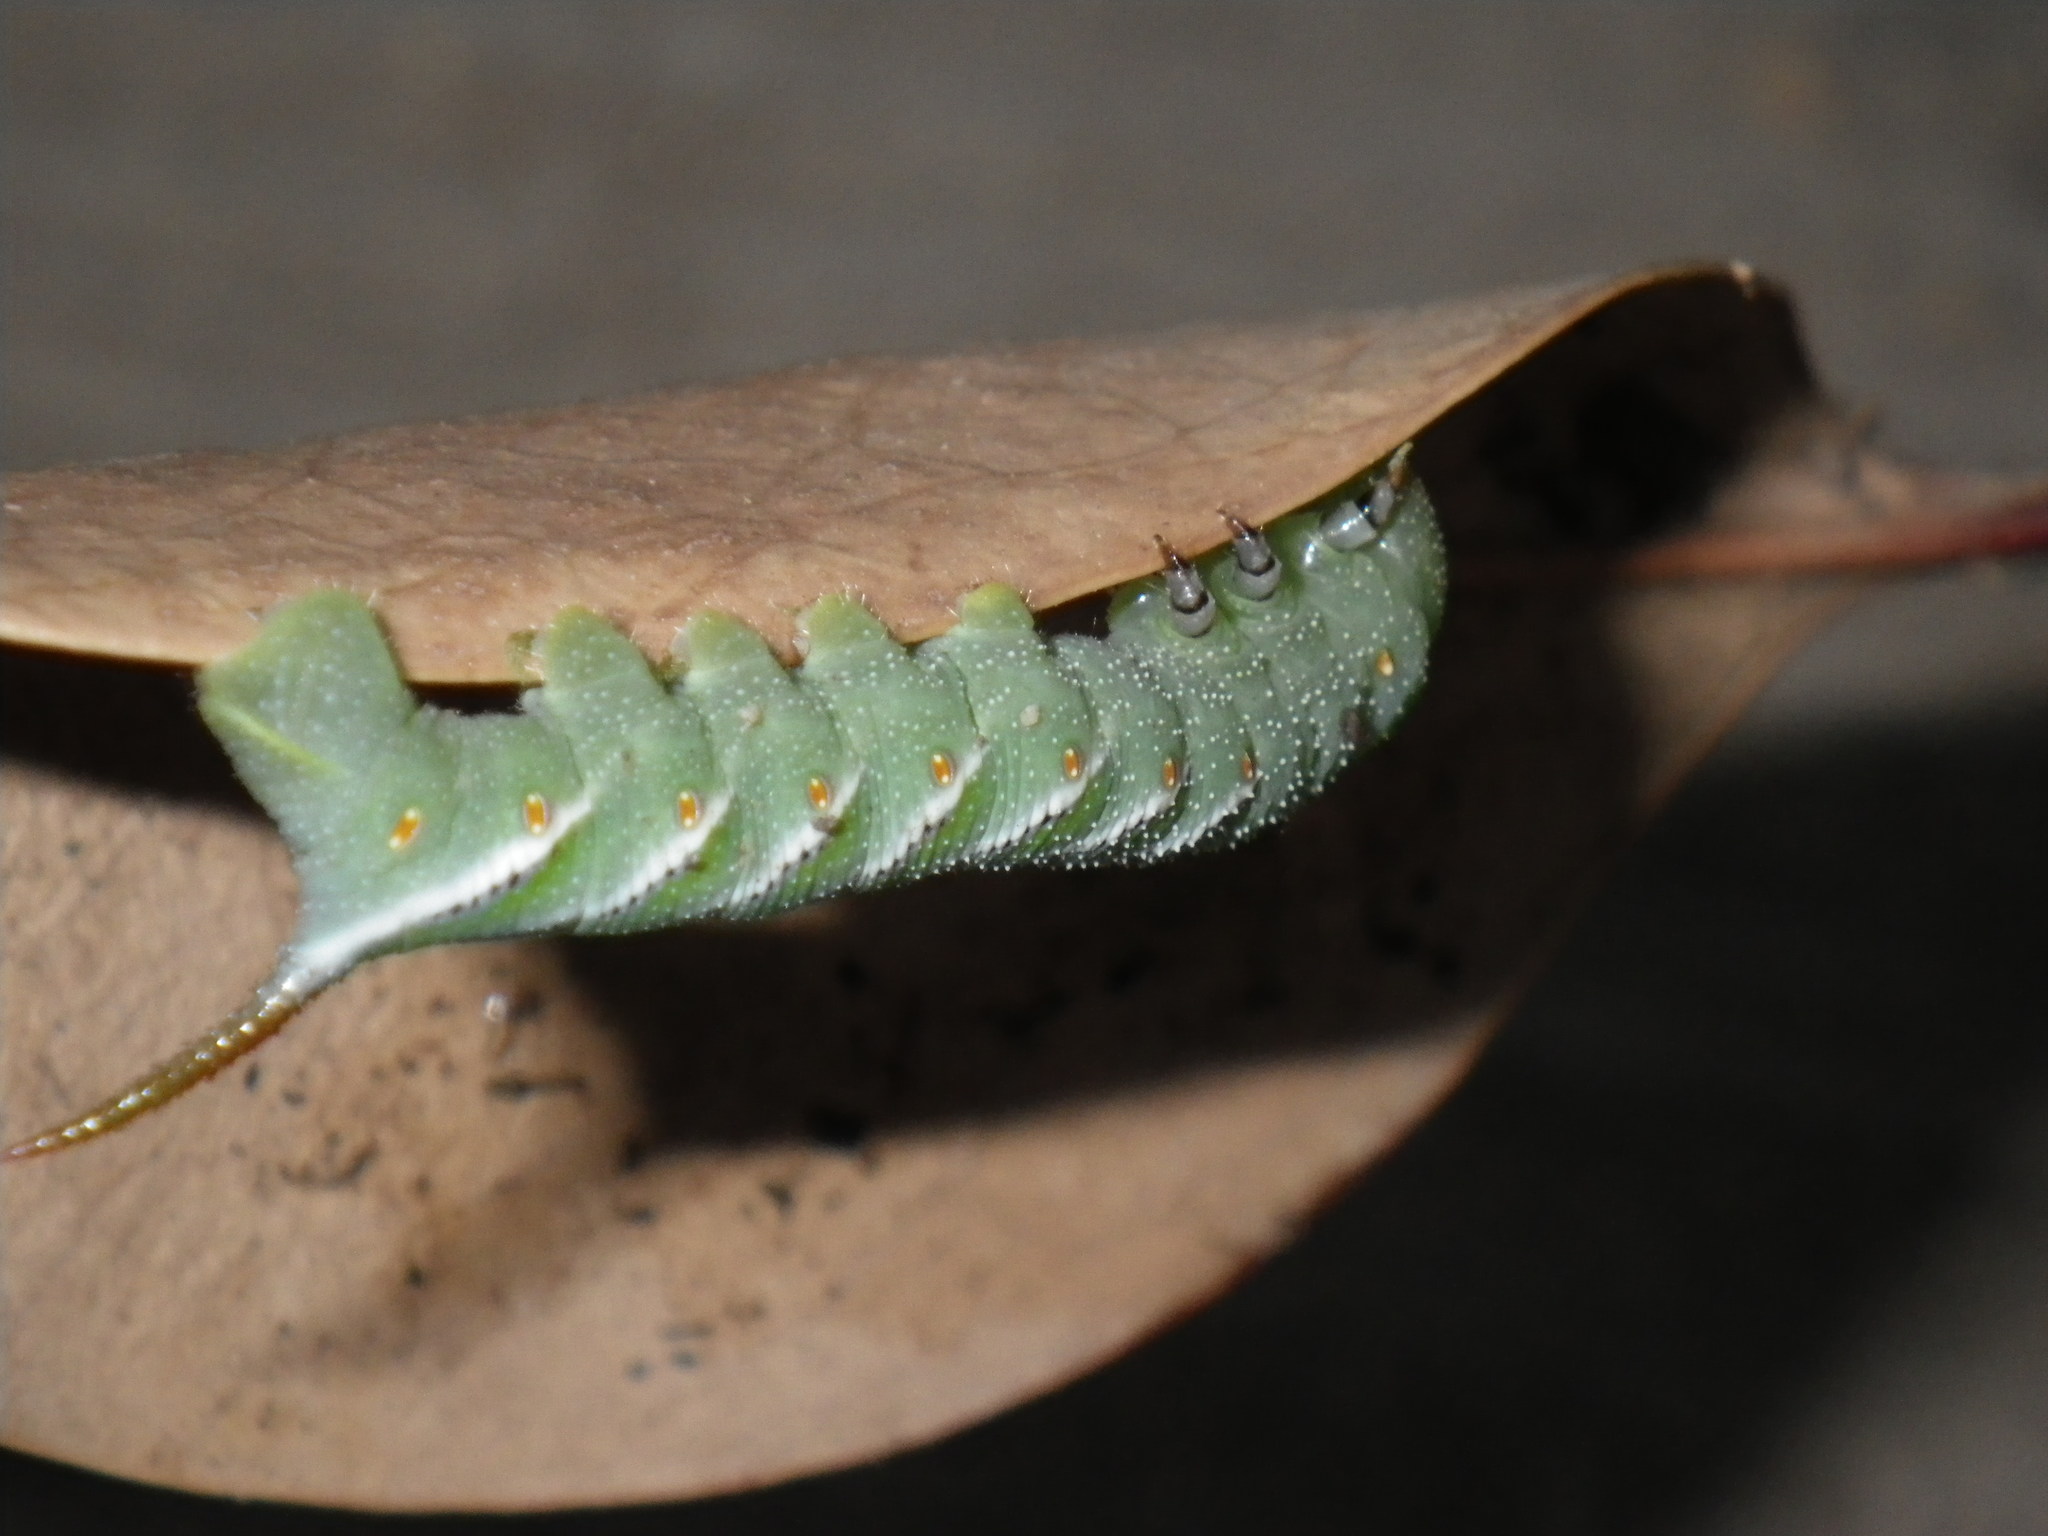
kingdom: Animalia
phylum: Arthropoda
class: Insecta
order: Lepidoptera
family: Sphingidae
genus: Manduca
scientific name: Manduca sexta
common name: Carolina sphinx
